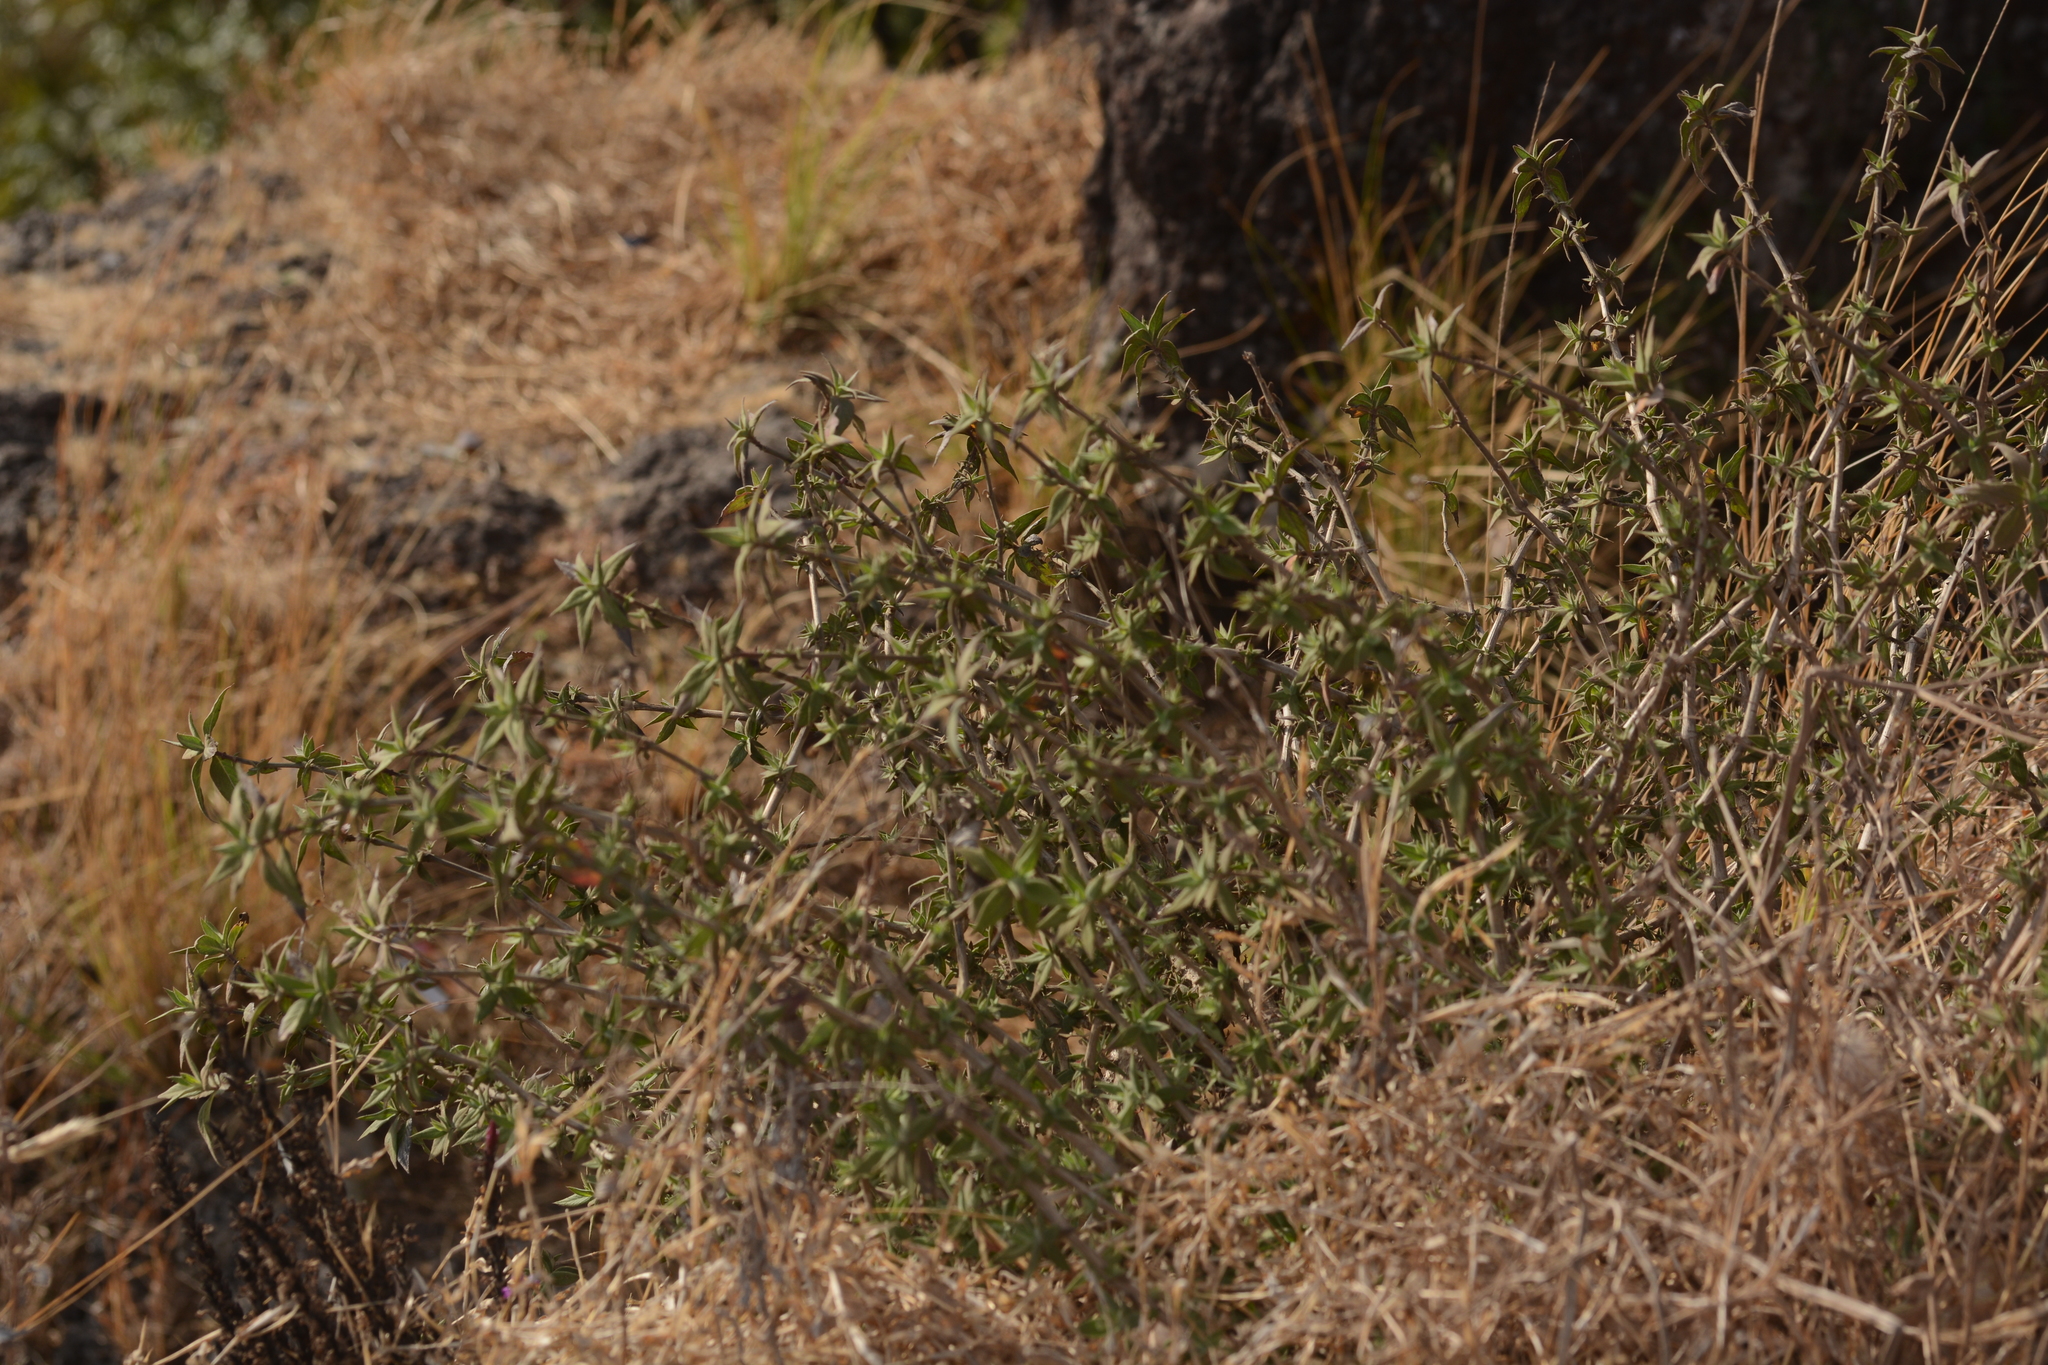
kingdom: Plantae
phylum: Tracheophyta
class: Magnoliopsida
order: Lamiales
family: Acanthaceae
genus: Strobilanthes
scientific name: Strobilanthes scrobiculata
